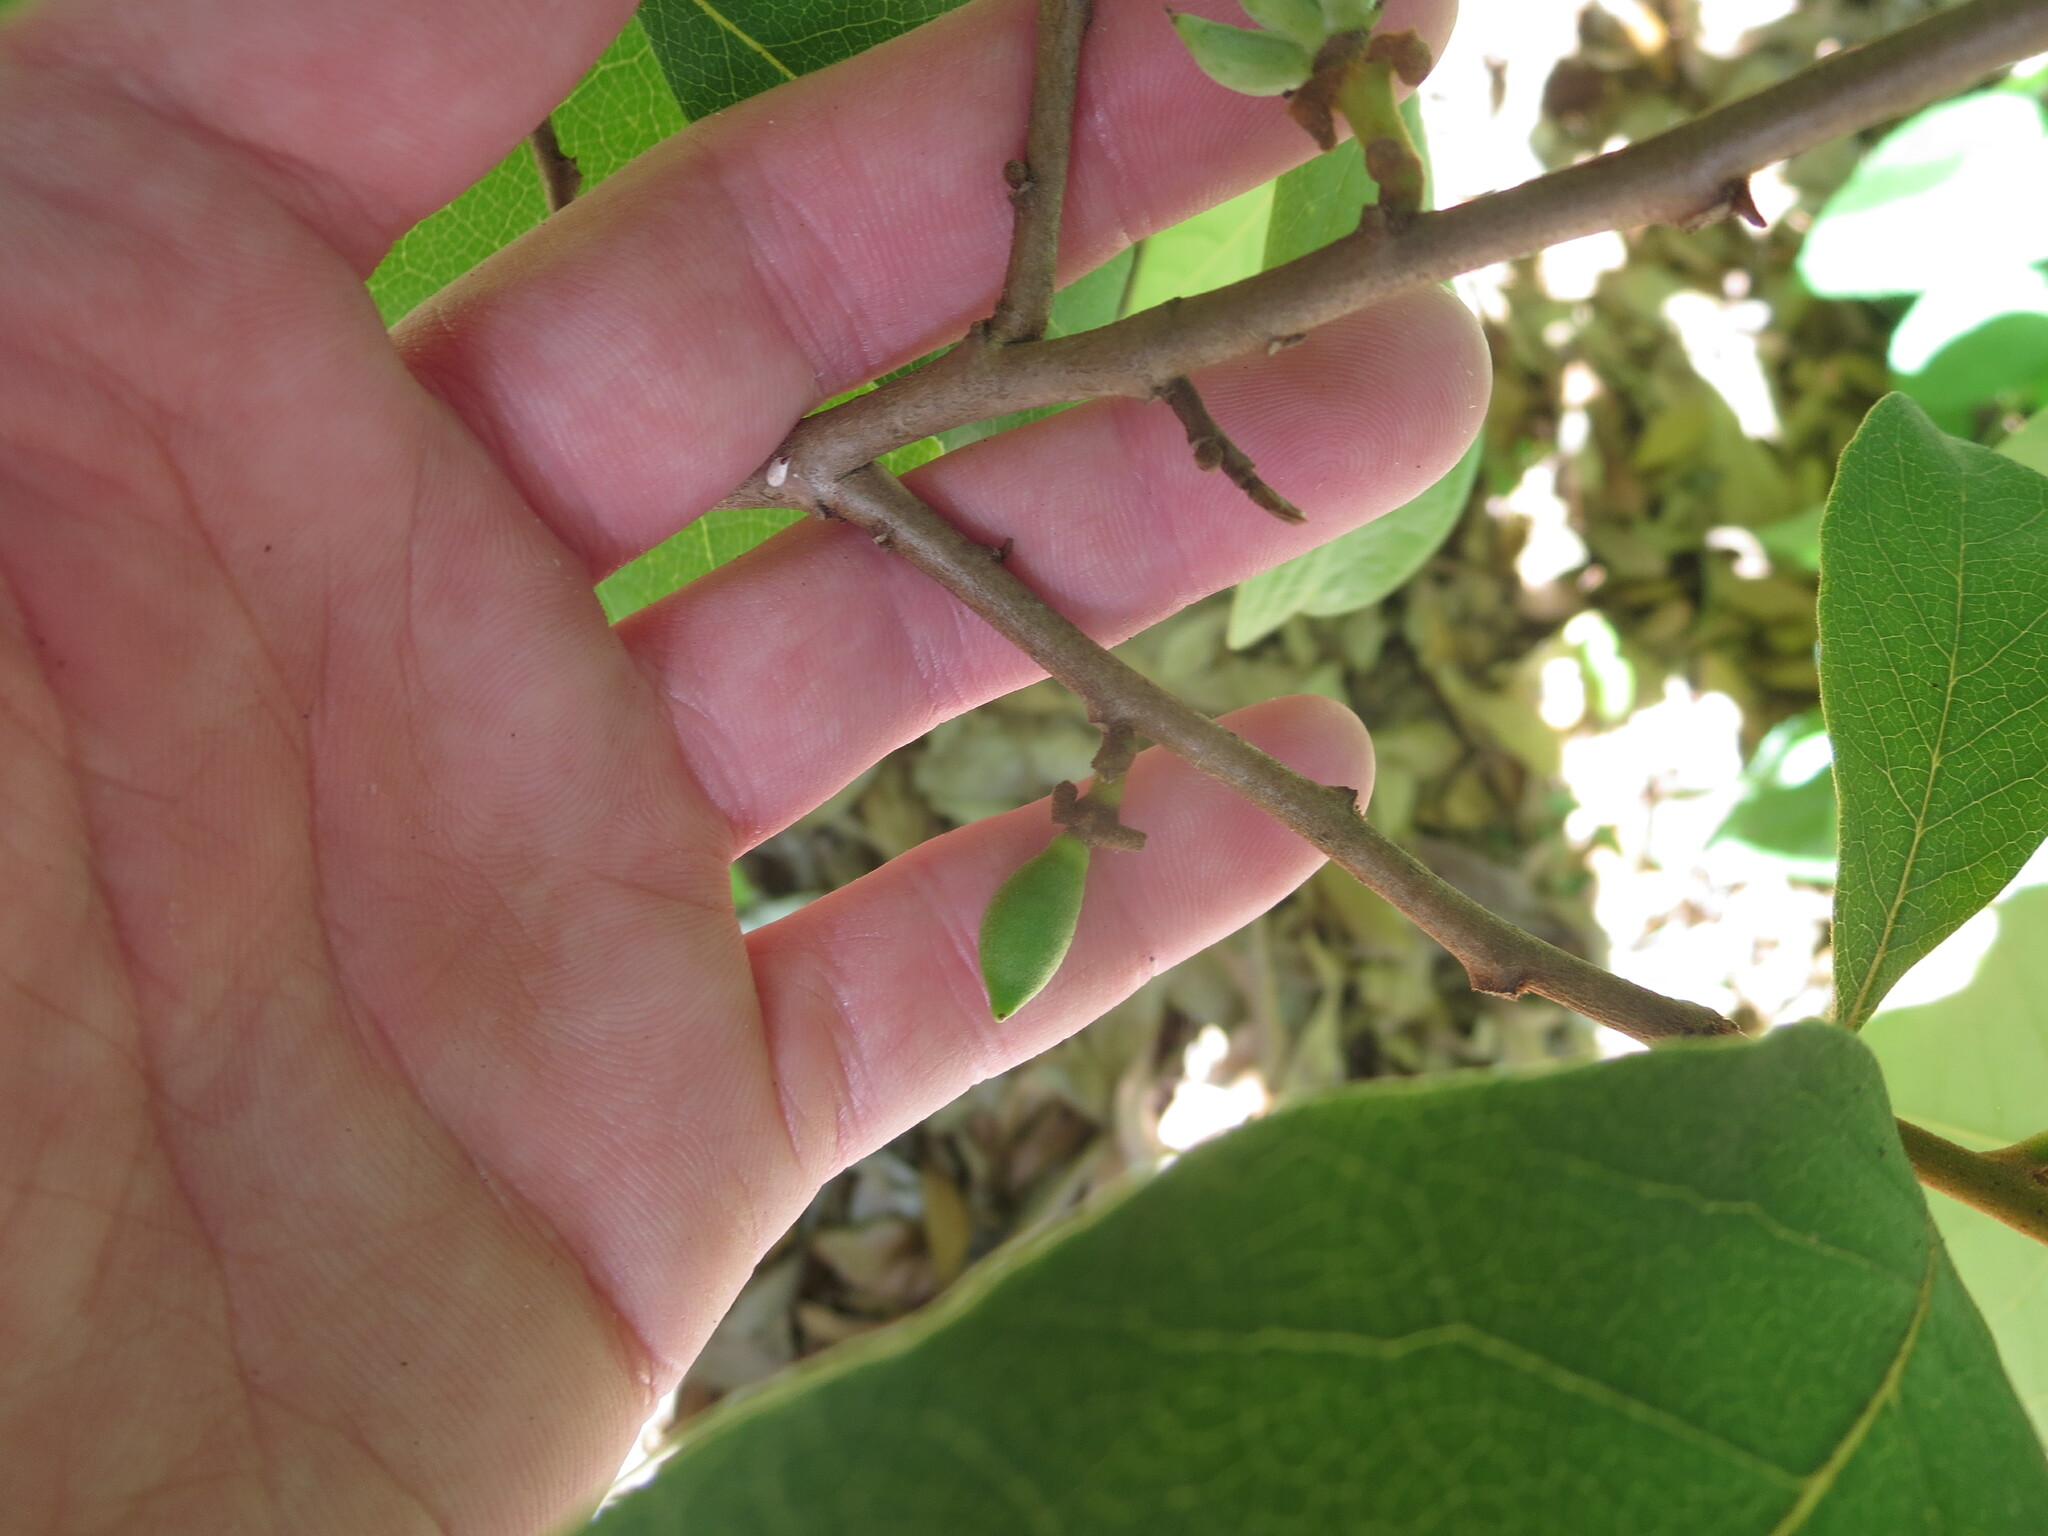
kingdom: Plantae
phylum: Tracheophyta
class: Magnoliopsida
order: Magnoliales
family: Annonaceae
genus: Asimina
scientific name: Asimina parviflora
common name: Dwarf pawpaw
